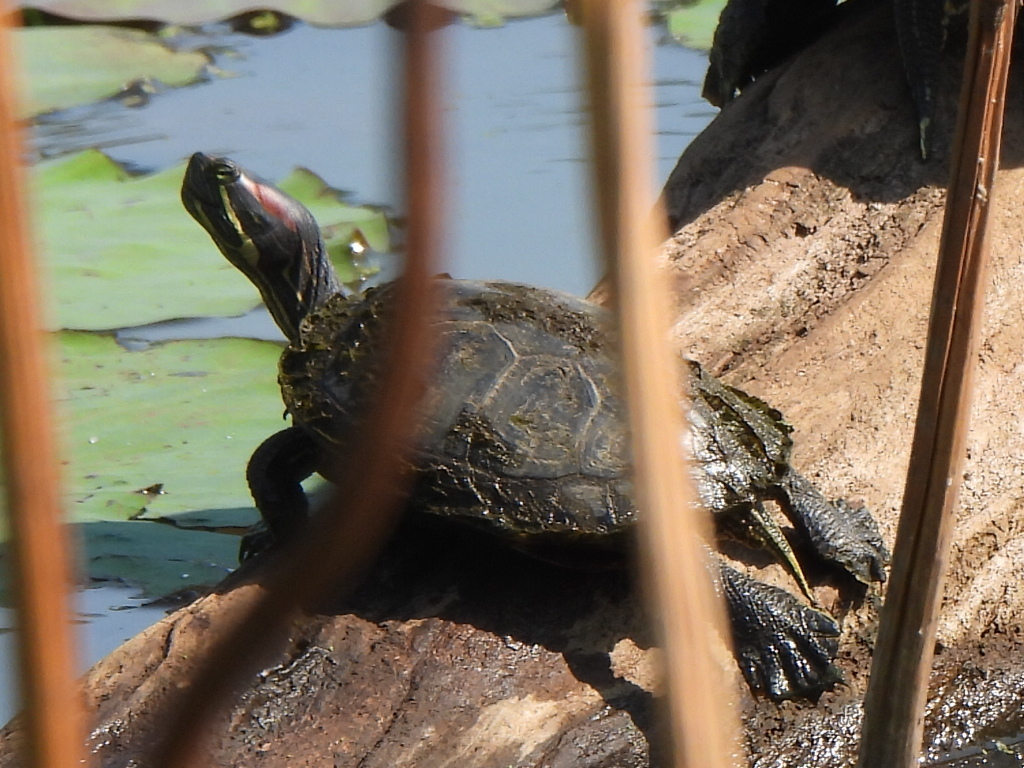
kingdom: Animalia
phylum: Chordata
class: Testudines
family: Emydidae
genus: Trachemys
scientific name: Trachemys scripta
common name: Slider
